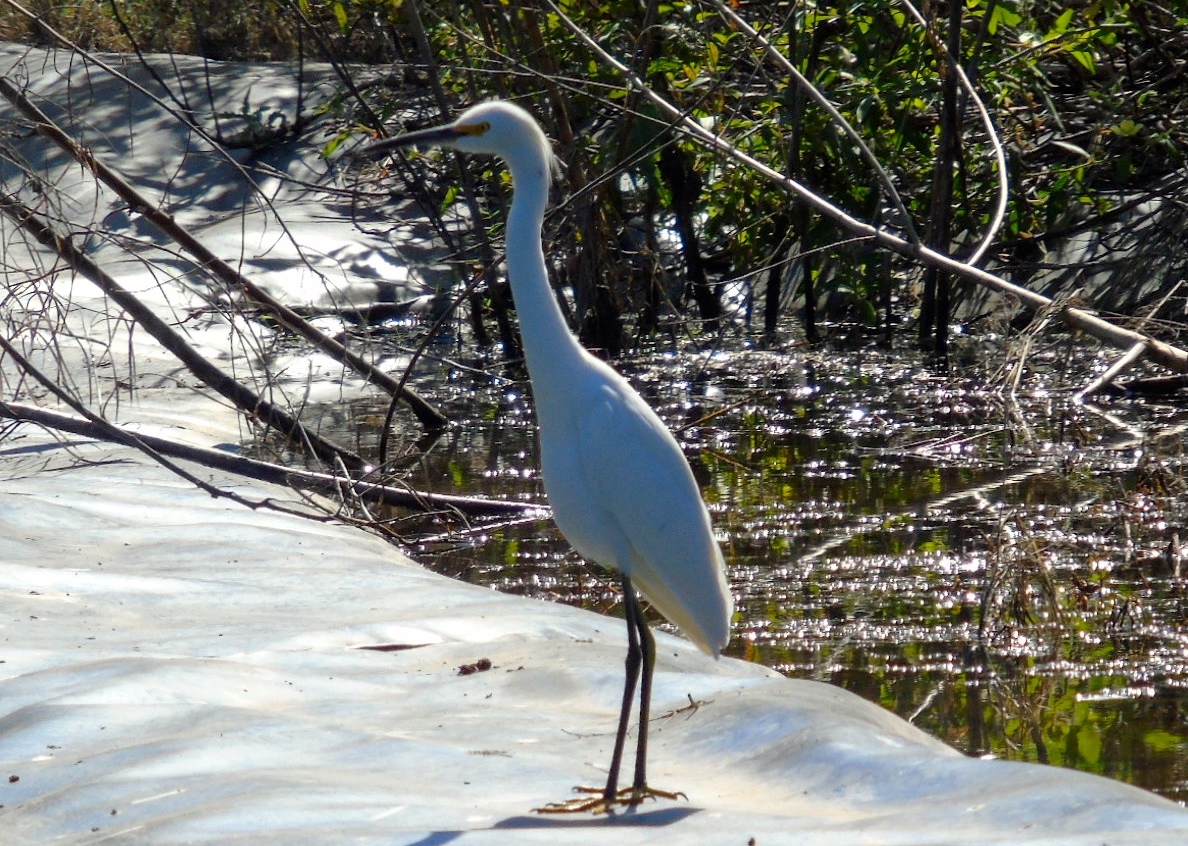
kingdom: Animalia
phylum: Chordata
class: Aves
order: Pelecaniformes
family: Ardeidae
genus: Egretta
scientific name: Egretta thula
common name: Snowy egret
